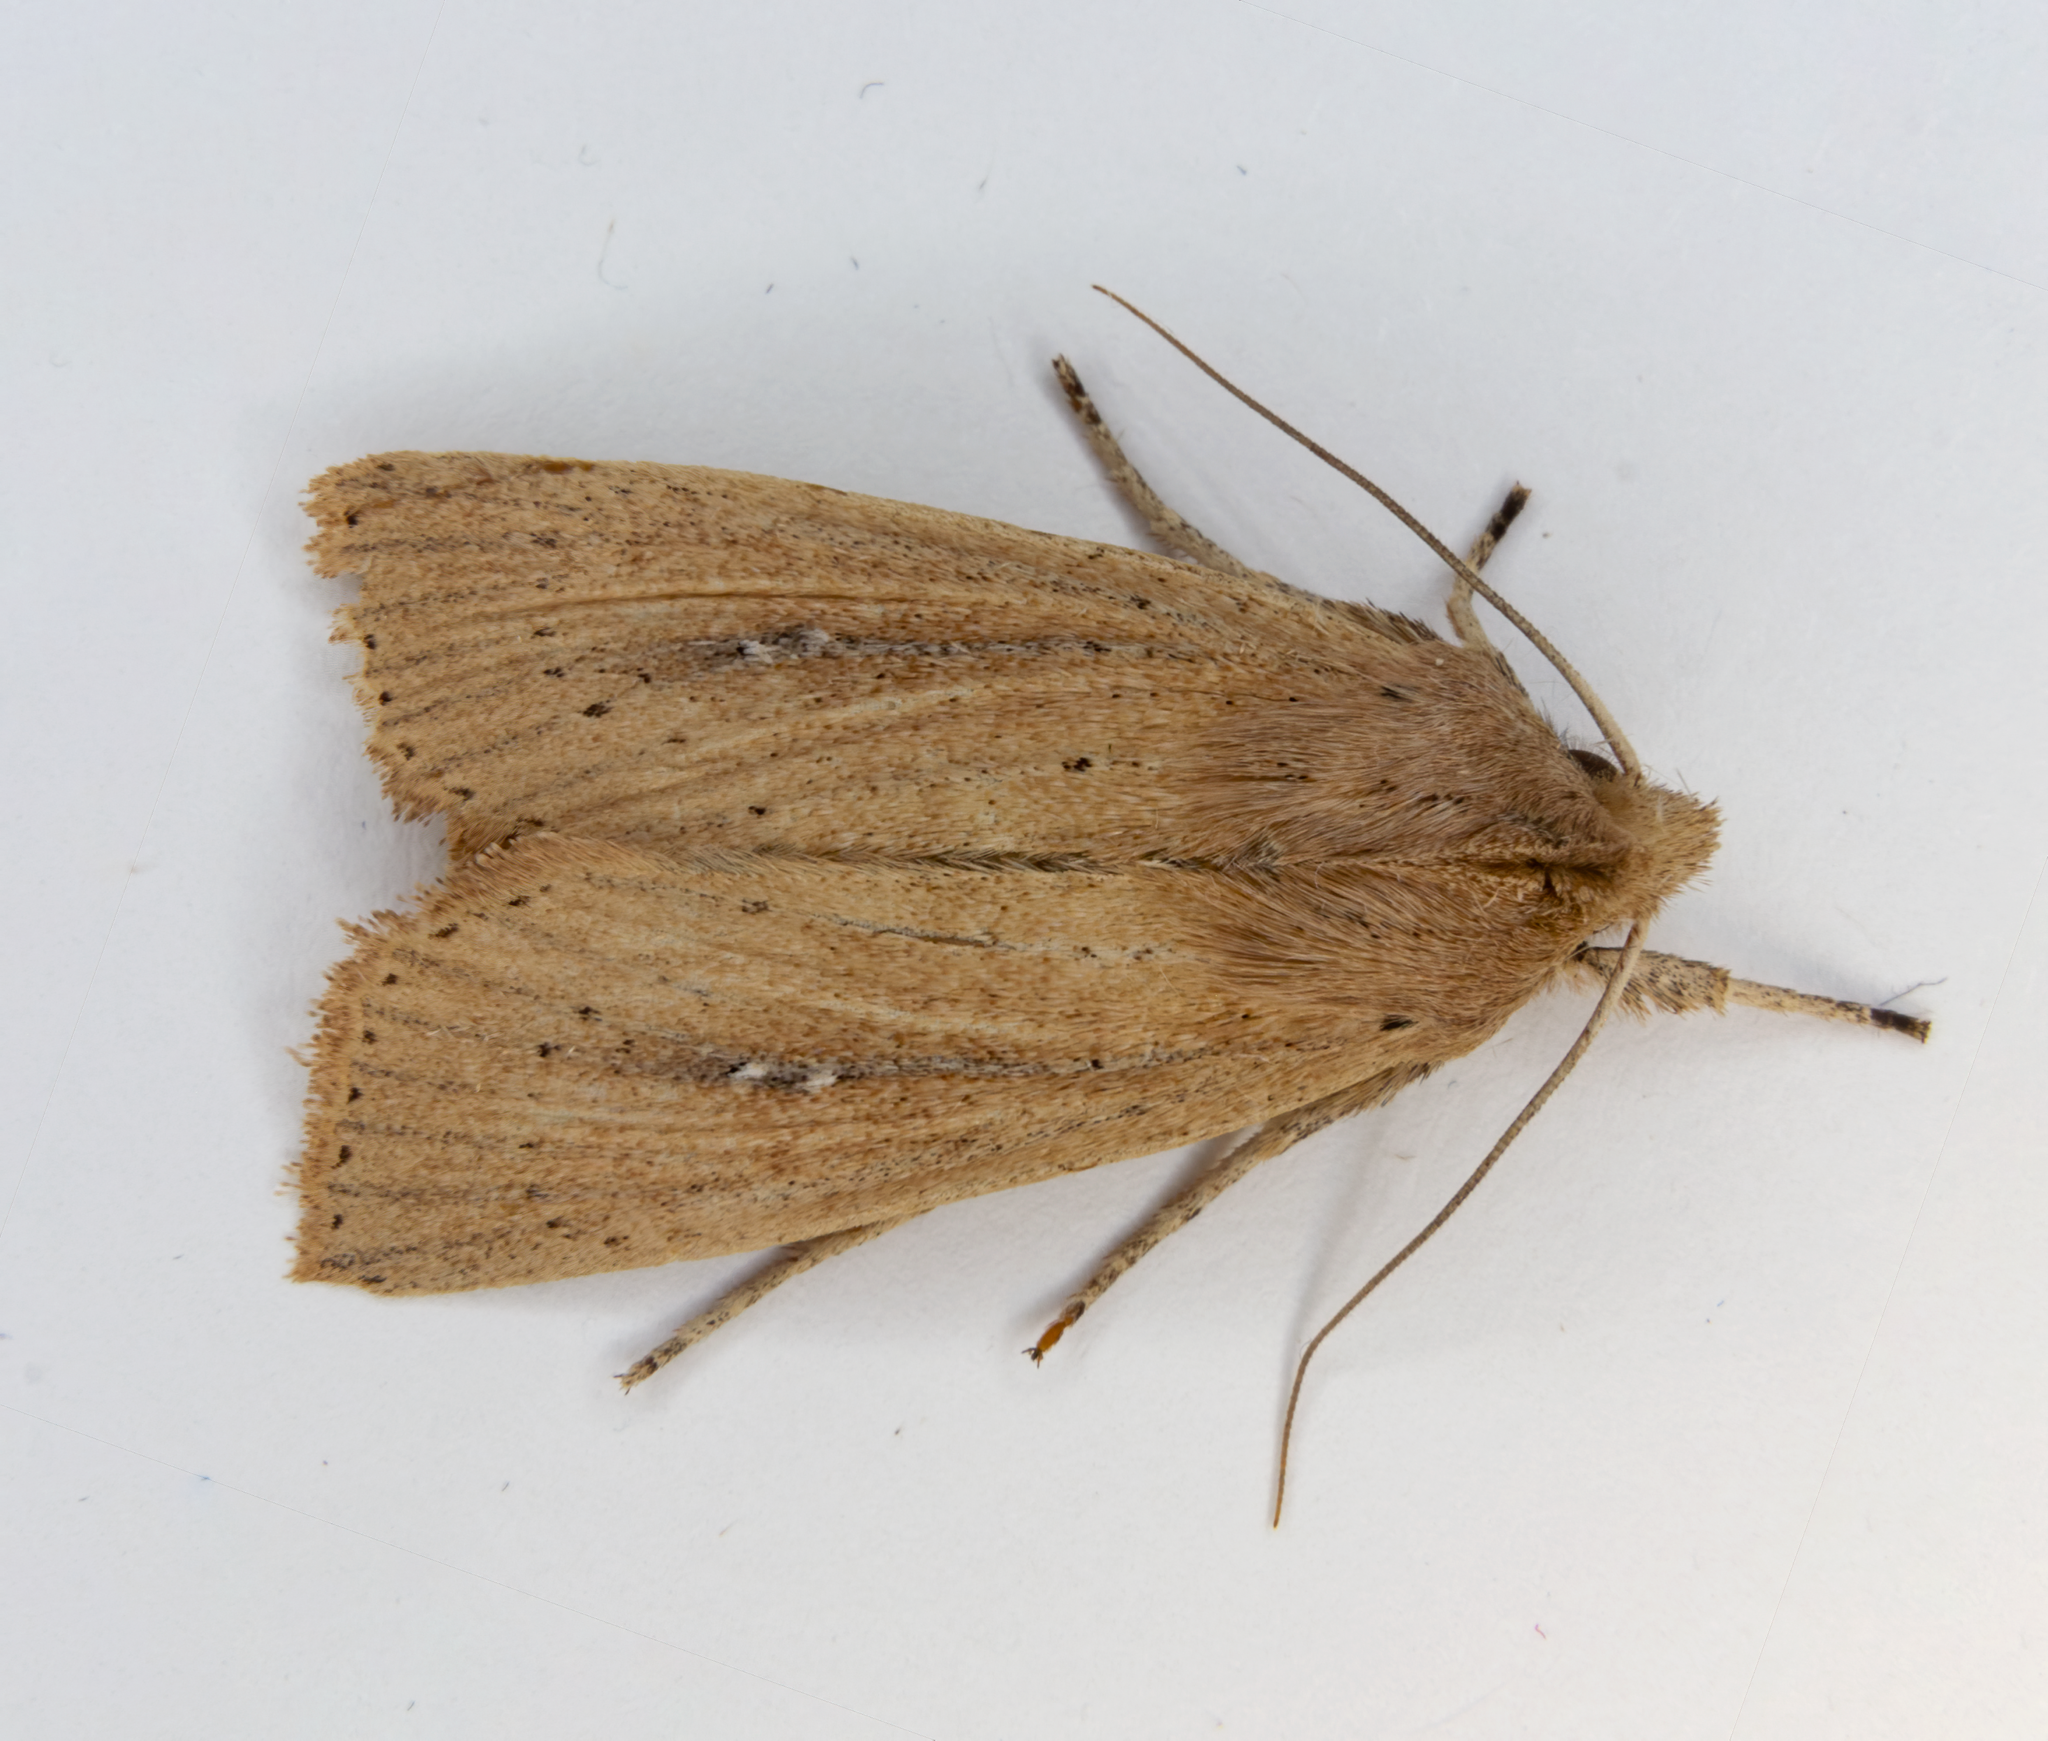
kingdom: Animalia
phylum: Arthropoda
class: Insecta
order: Lepidoptera
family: Noctuidae
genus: Ichneutica
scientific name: Ichneutica
